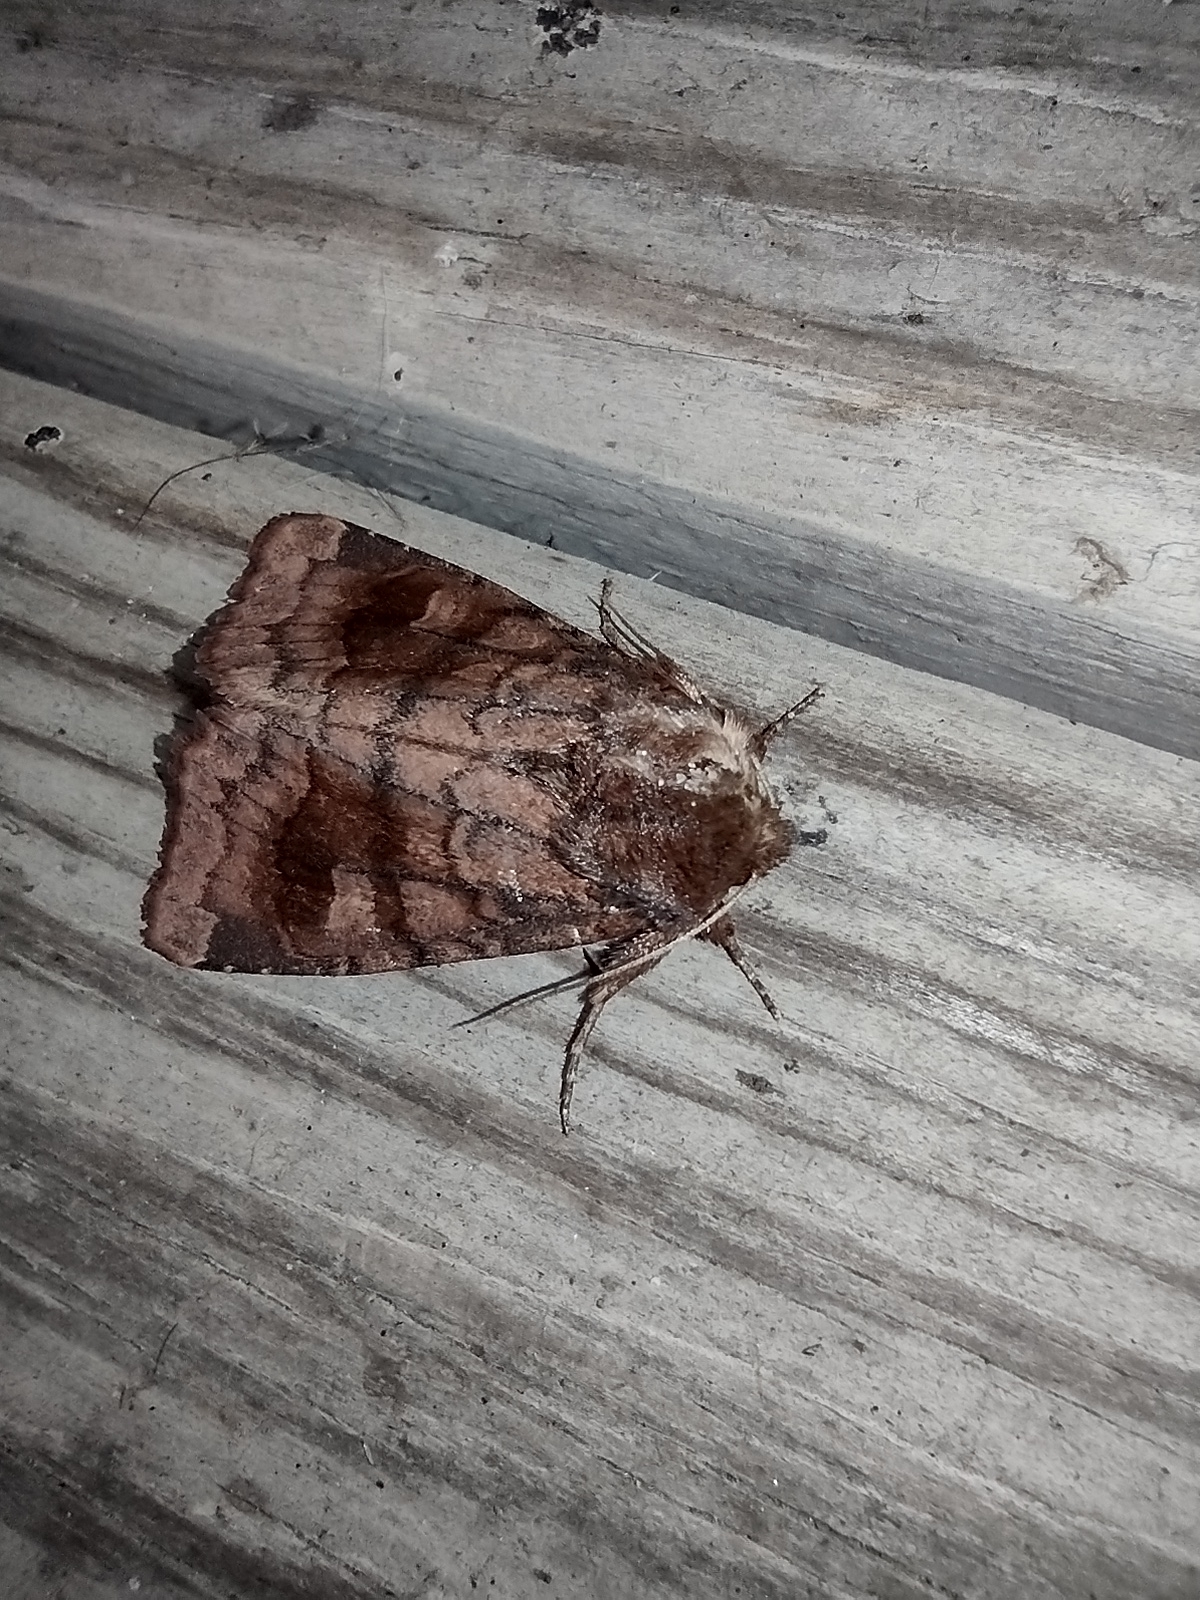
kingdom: Animalia
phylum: Arthropoda
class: Insecta
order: Lepidoptera
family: Noctuidae
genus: Nephelodes
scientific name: Nephelodes minians
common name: Bronzed cutworm
